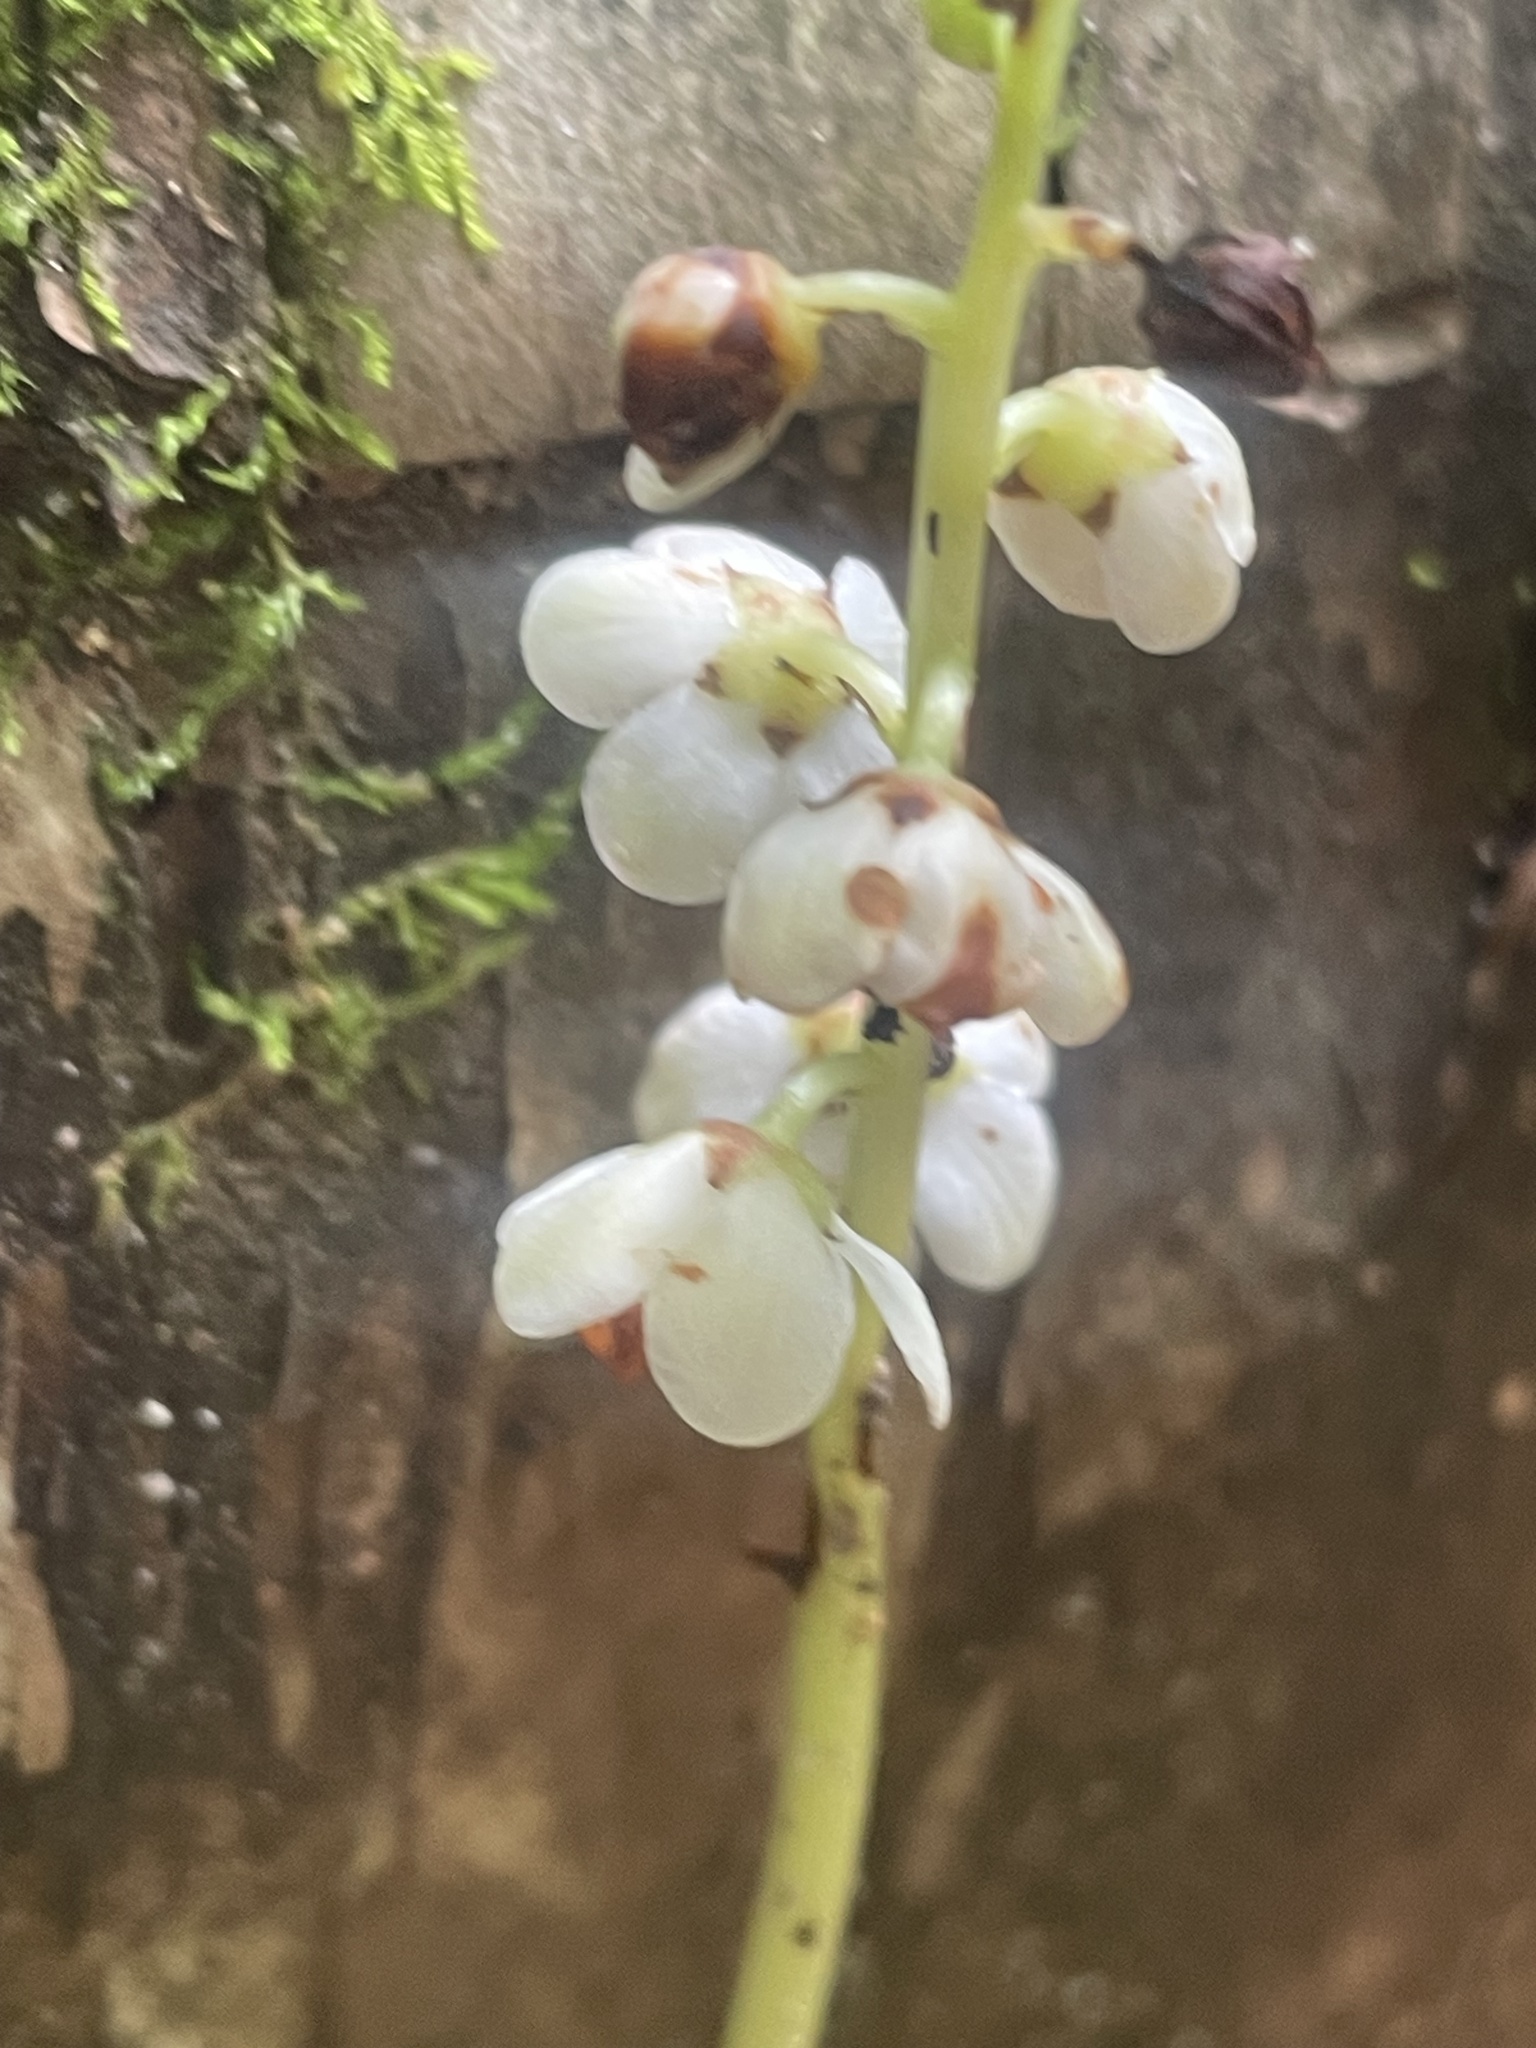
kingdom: Plantae
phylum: Tracheophyta
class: Magnoliopsida
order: Ericales
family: Ericaceae
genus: Pyrola
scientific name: Pyrola americana
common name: American wintergreen
